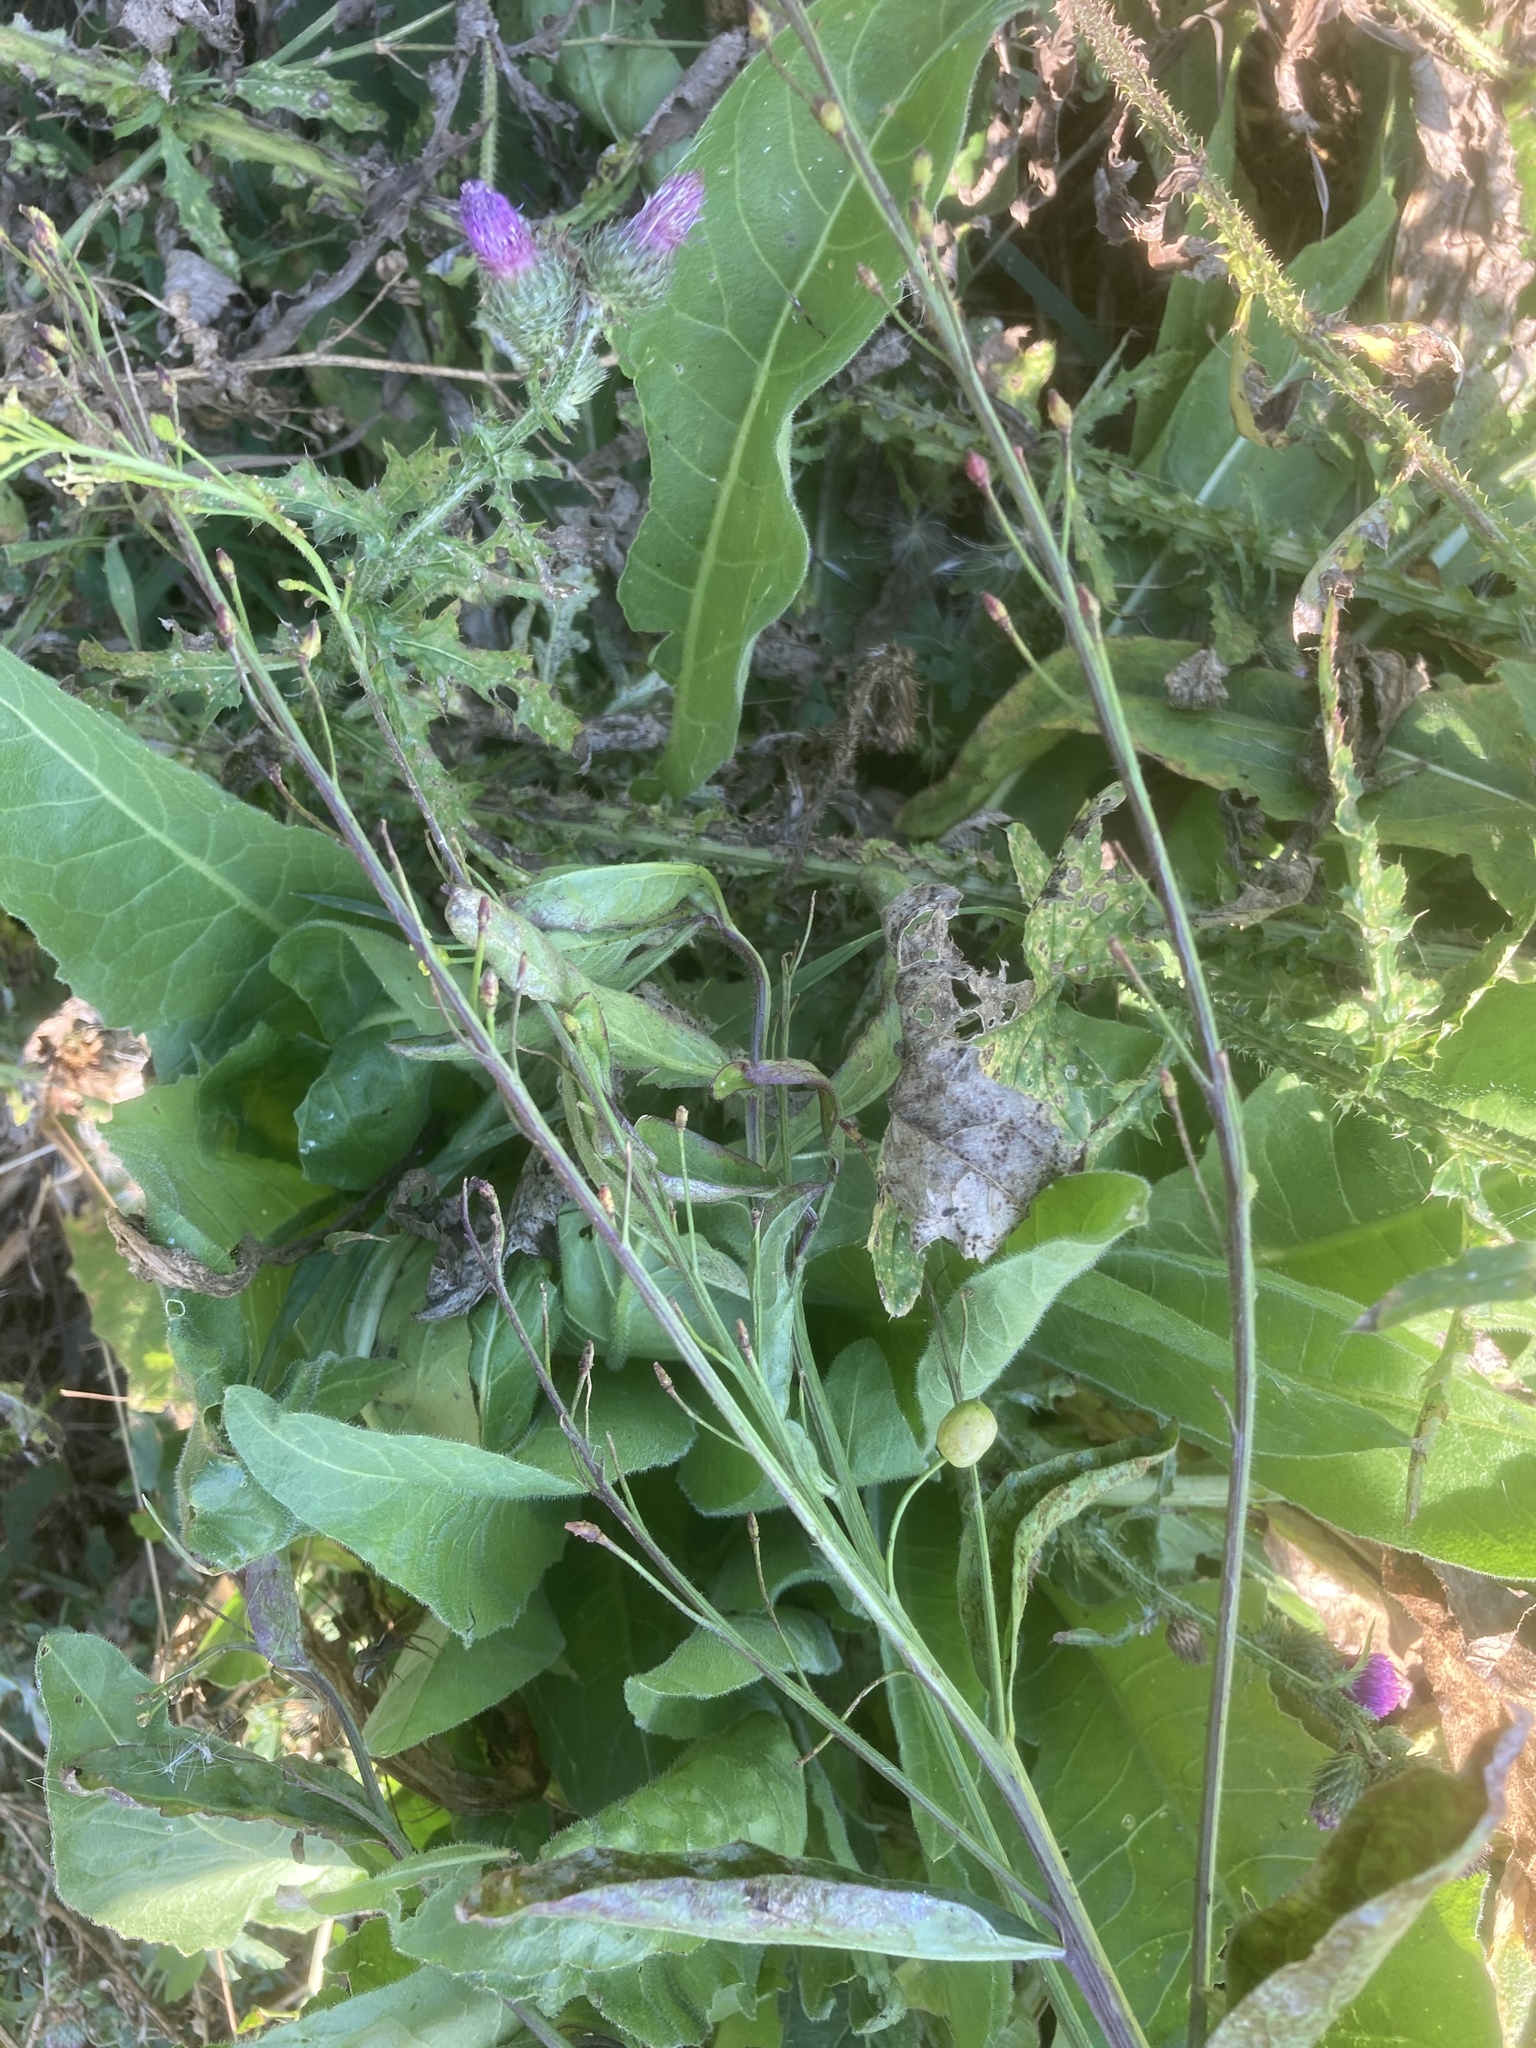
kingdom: Plantae
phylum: Tracheophyta
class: Magnoliopsida
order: Brassicales
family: Brassicaceae
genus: Bunias
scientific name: Bunias orientalis
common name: Warty-cabbage
